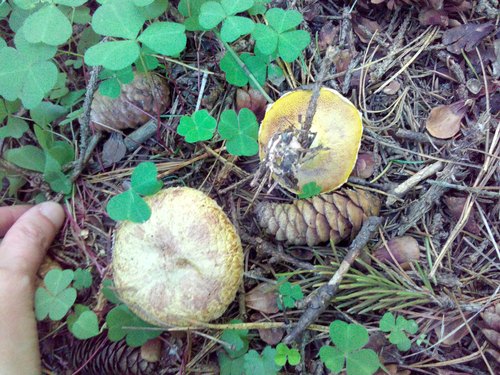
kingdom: Fungi
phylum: Basidiomycota
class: Agaricomycetes
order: Boletales
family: Suillaceae
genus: Suillus
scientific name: Suillus americanus
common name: Chicken fat mushroom
